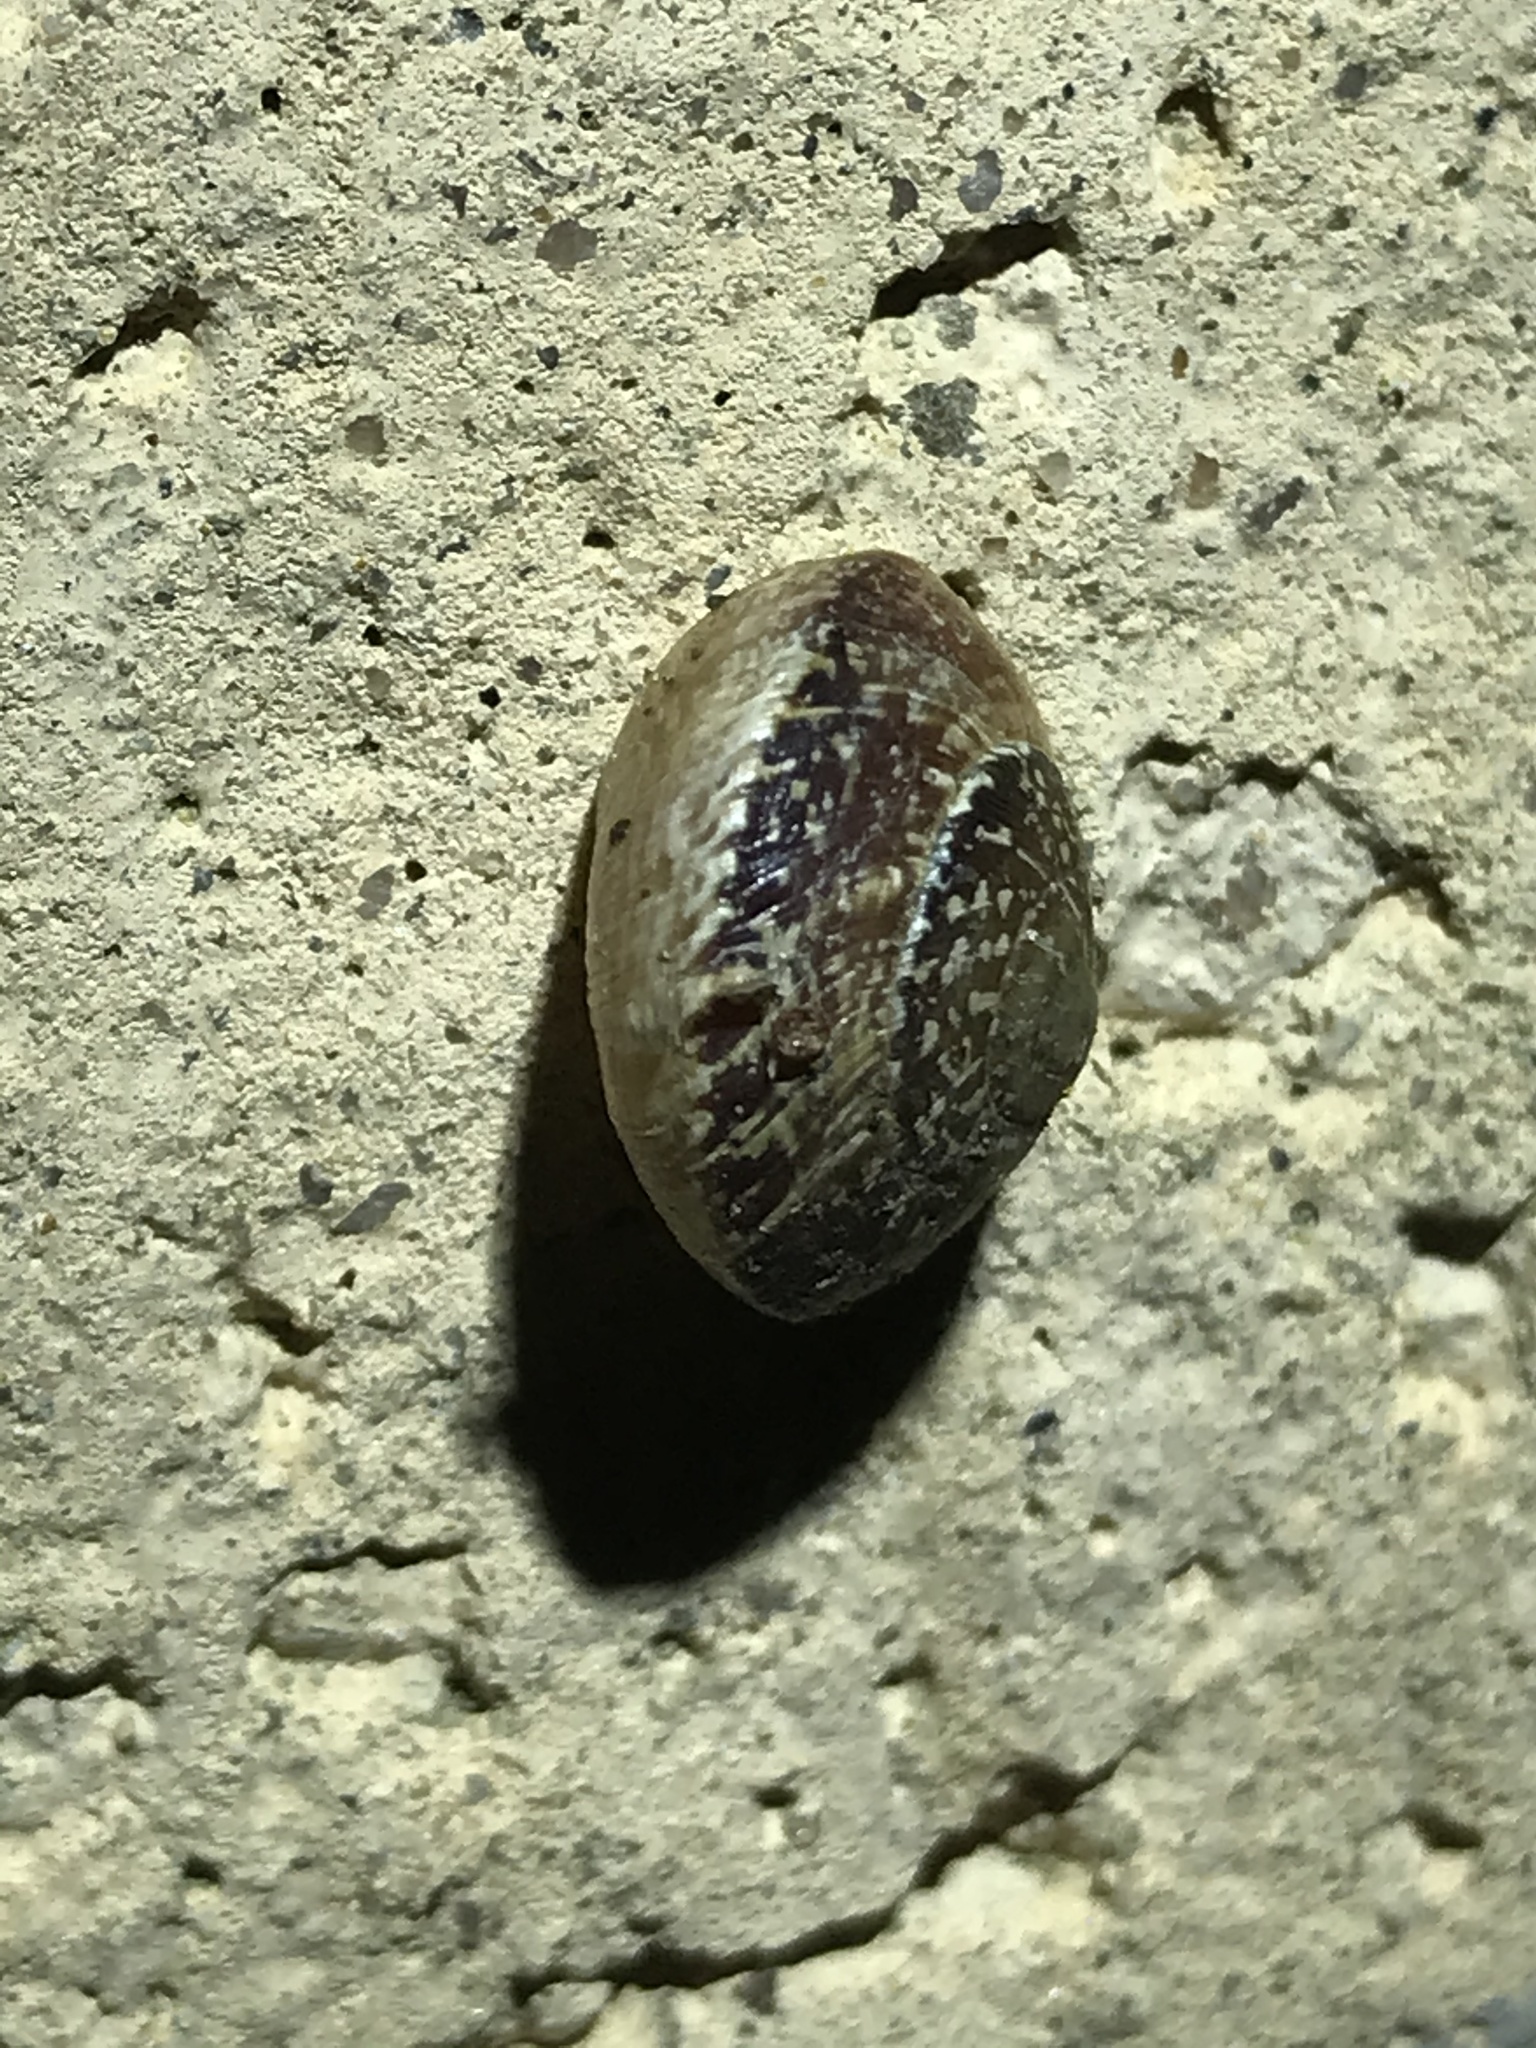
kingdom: Animalia
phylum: Mollusca
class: Gastropoda
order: Stylommatophora
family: Xanthonychidae
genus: Xerarionta
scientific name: Xerarionta tryoni
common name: Bicolor cactus snail
